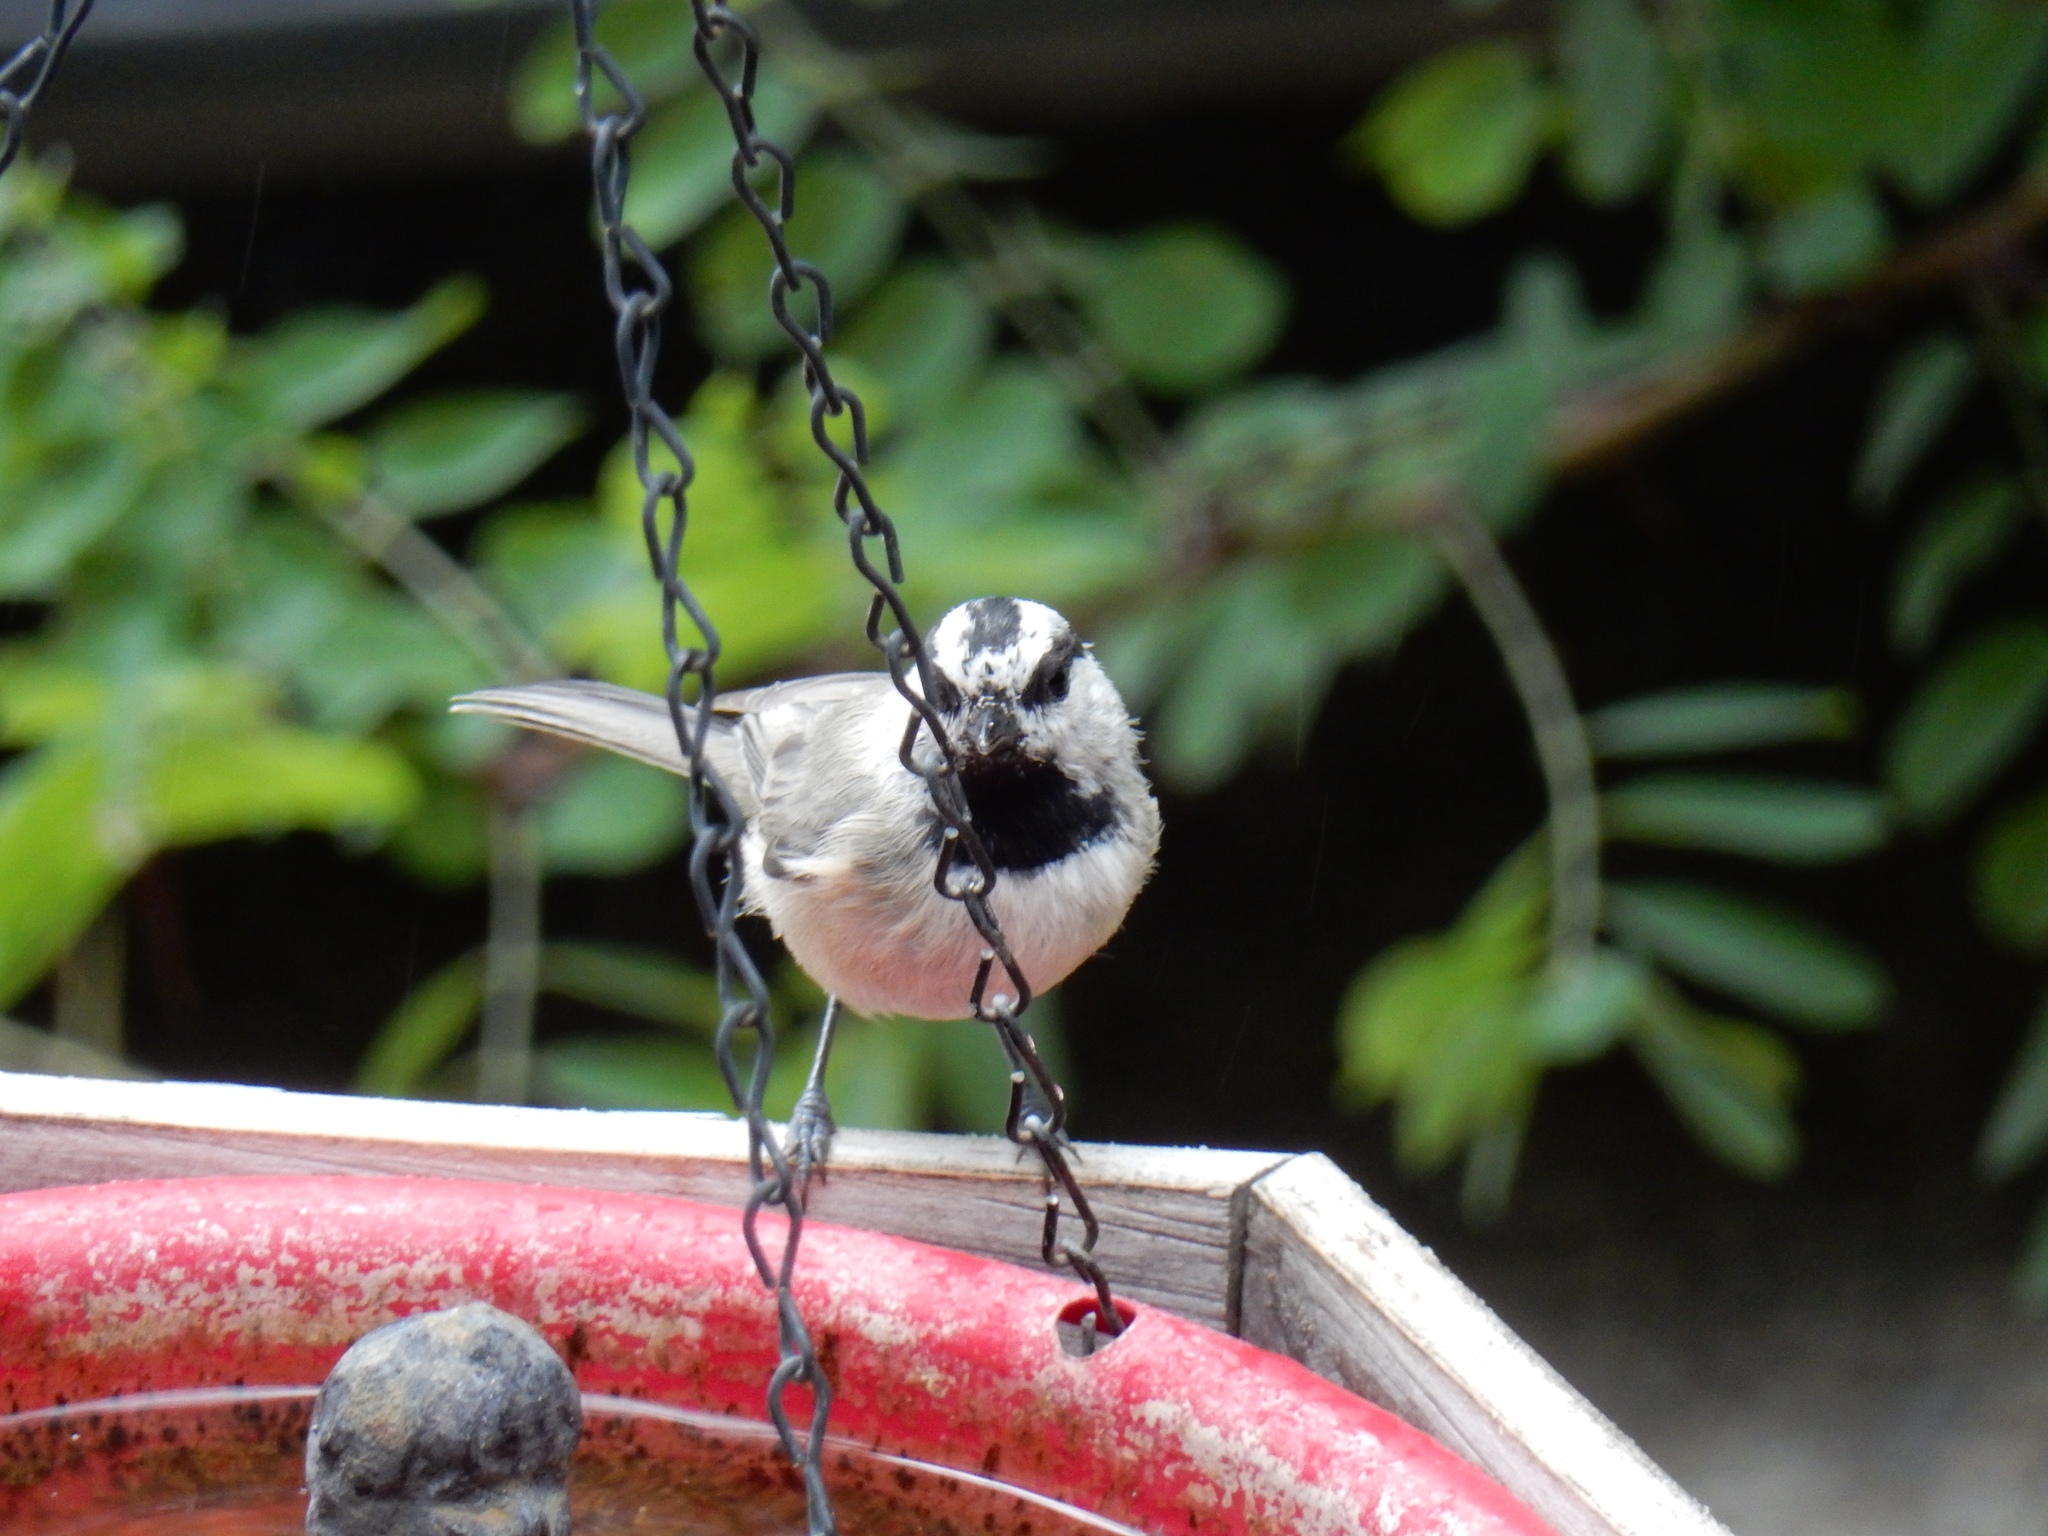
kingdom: Animalia
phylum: Chordata
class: Aves
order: Passeriformes
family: Paridae
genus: Poecile
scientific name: Poecile gambeli
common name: Mountain chickadee
